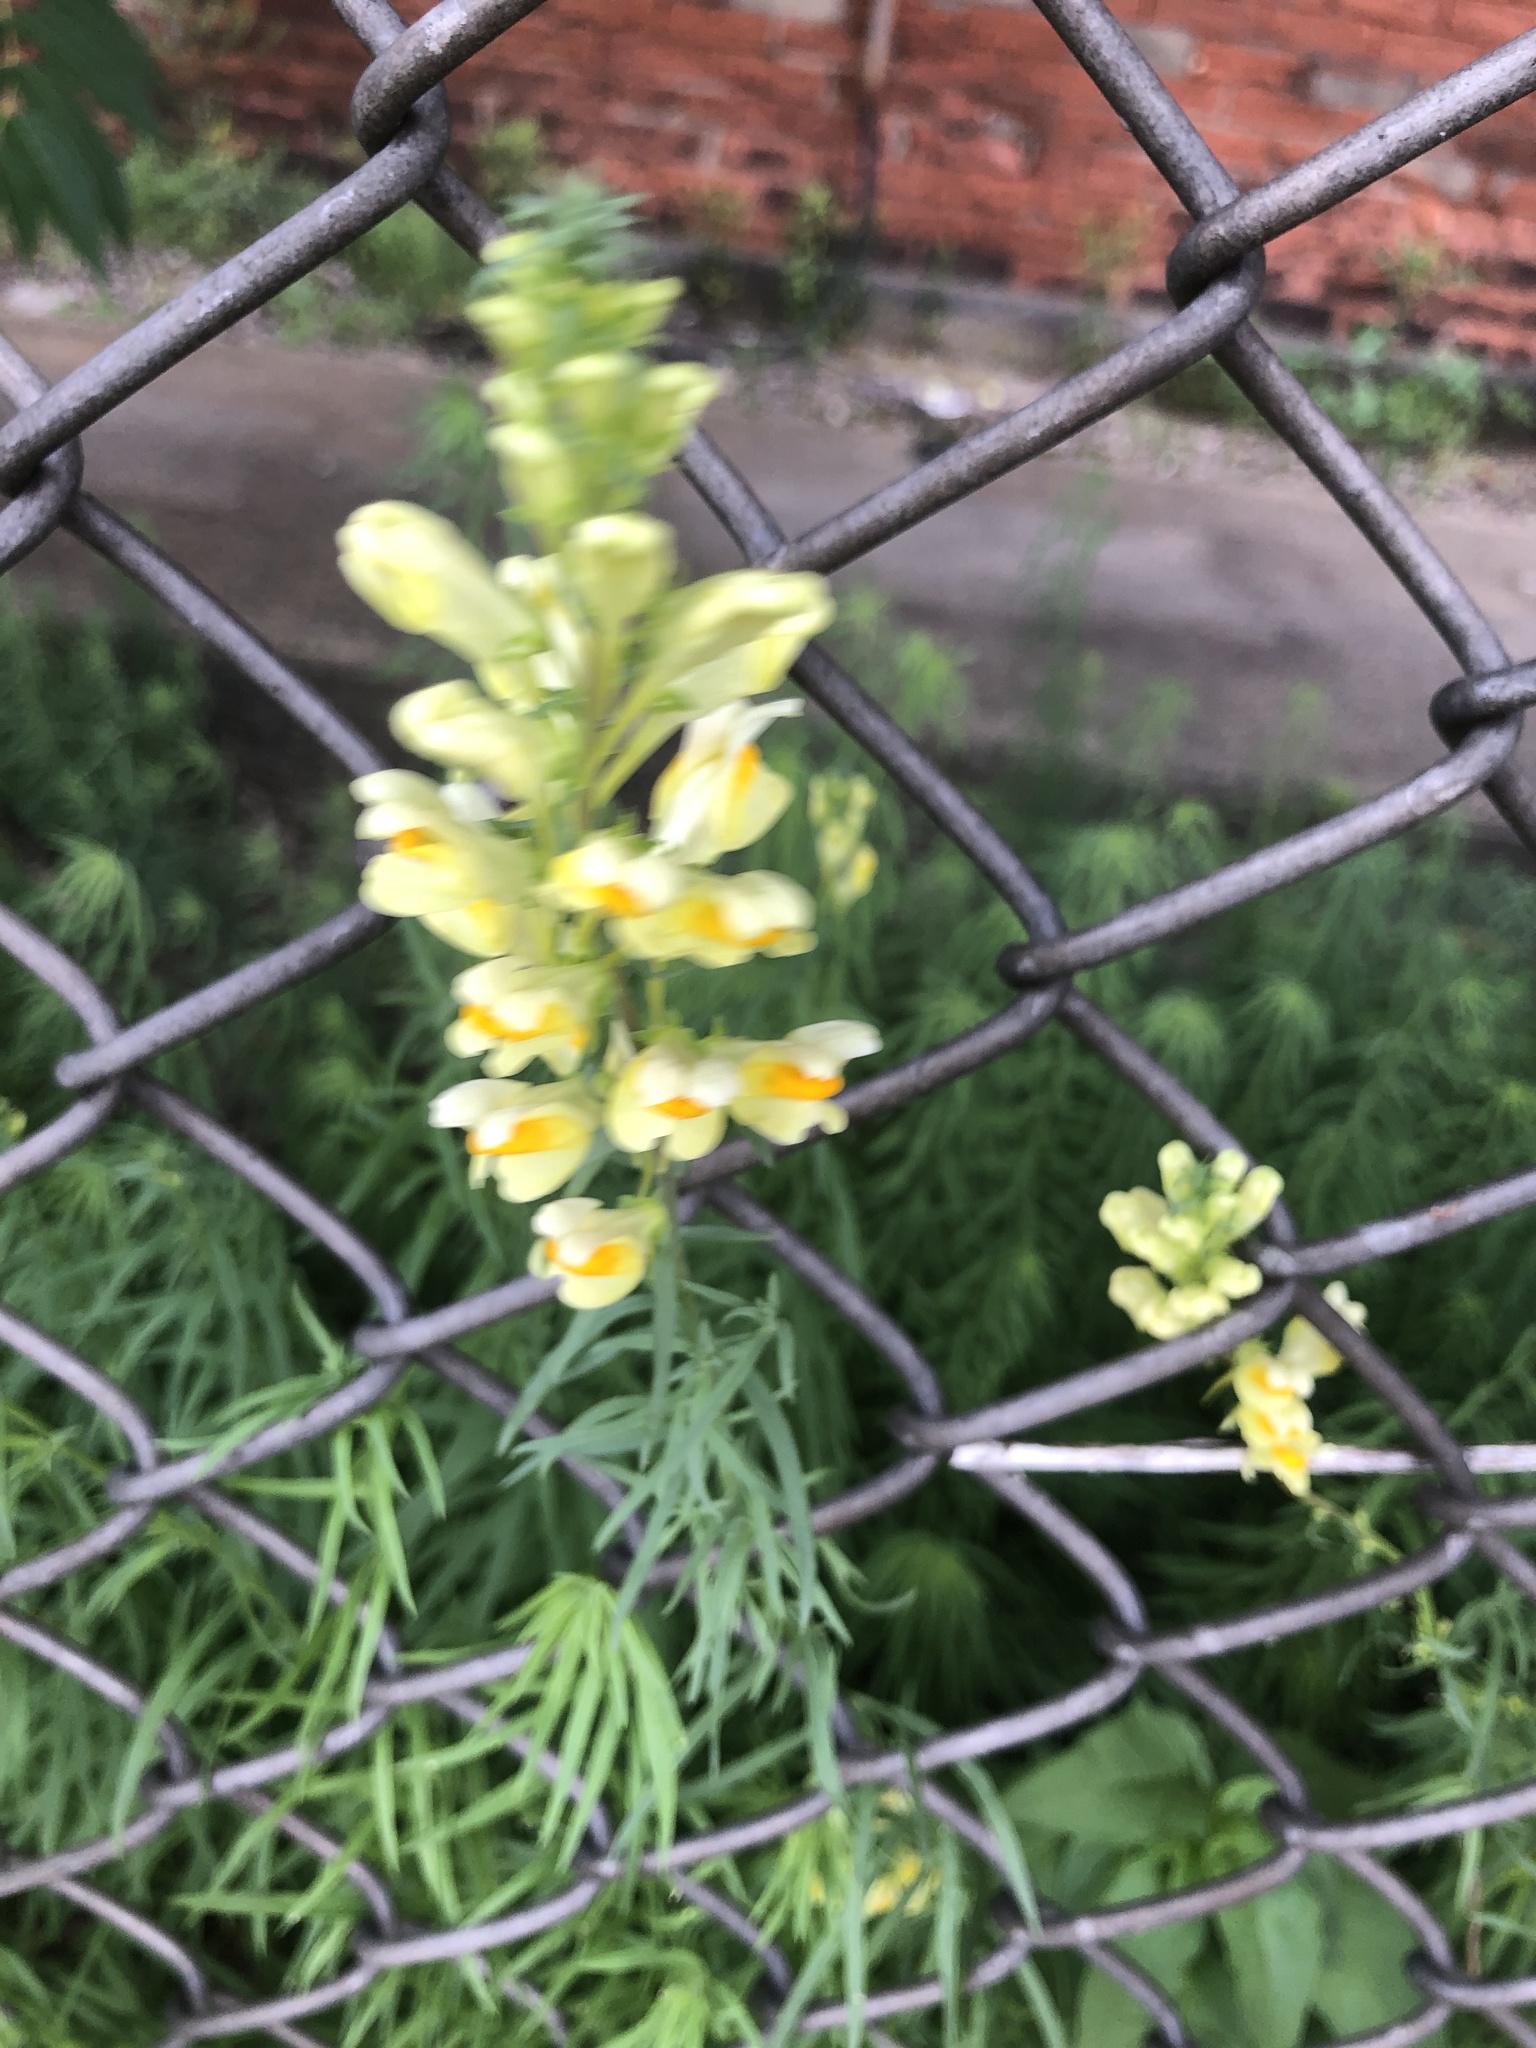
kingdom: Plantae
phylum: Tracheophyta
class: Magnoliopsida
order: Lamiales
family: Plantaginaceae
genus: Linaria
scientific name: Linaria vulgaris
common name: Butter and eggs
